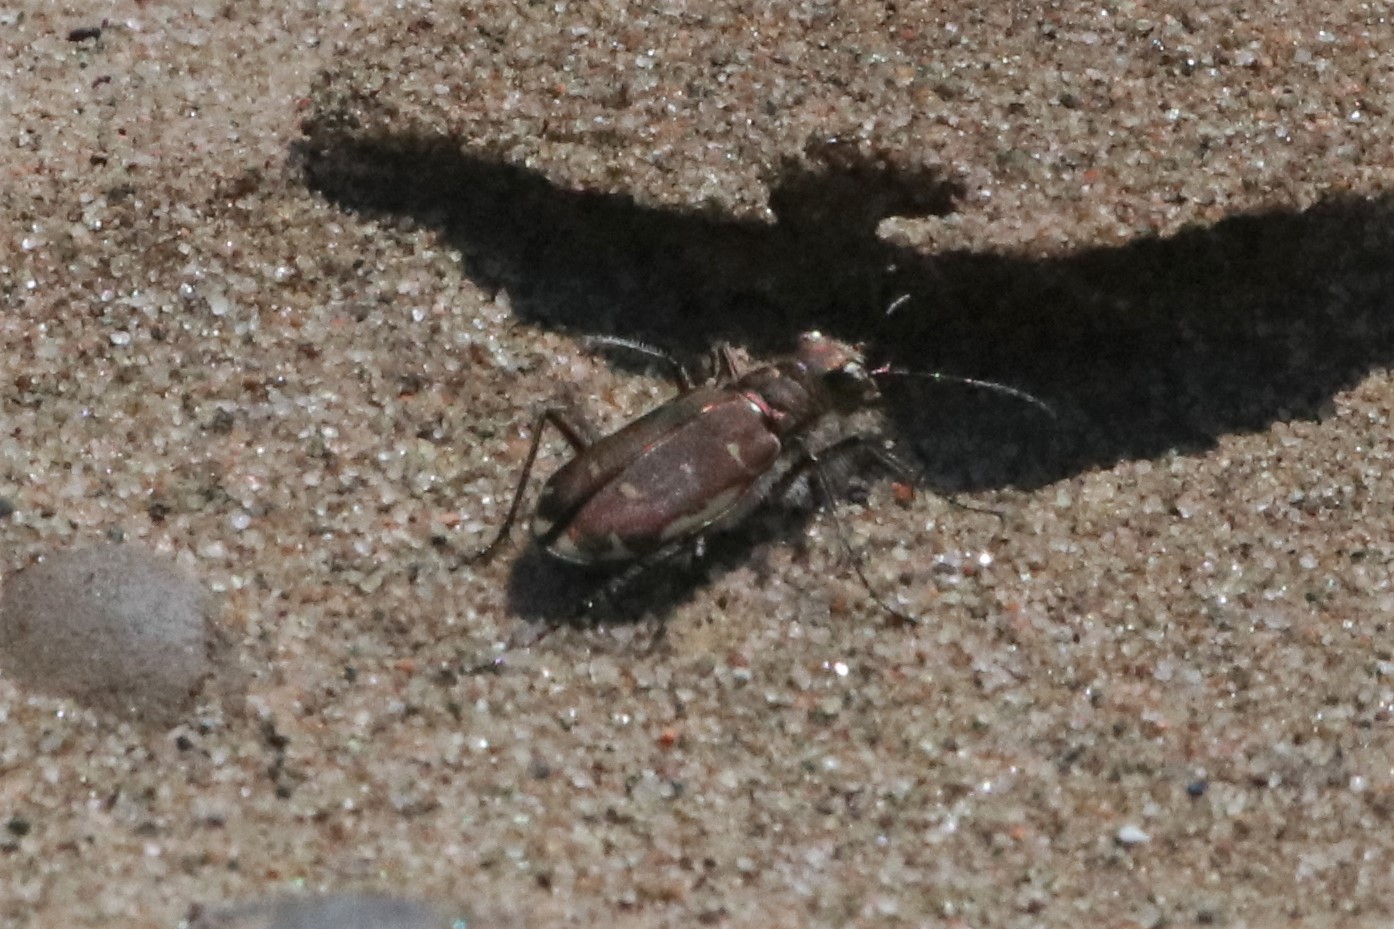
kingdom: Animalia
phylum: Arthropoda
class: Insecta
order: Coleoptera
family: Carabidae
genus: Cicindela
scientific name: Cicindela hirticollis
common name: Hairy-necked tiger beetle
